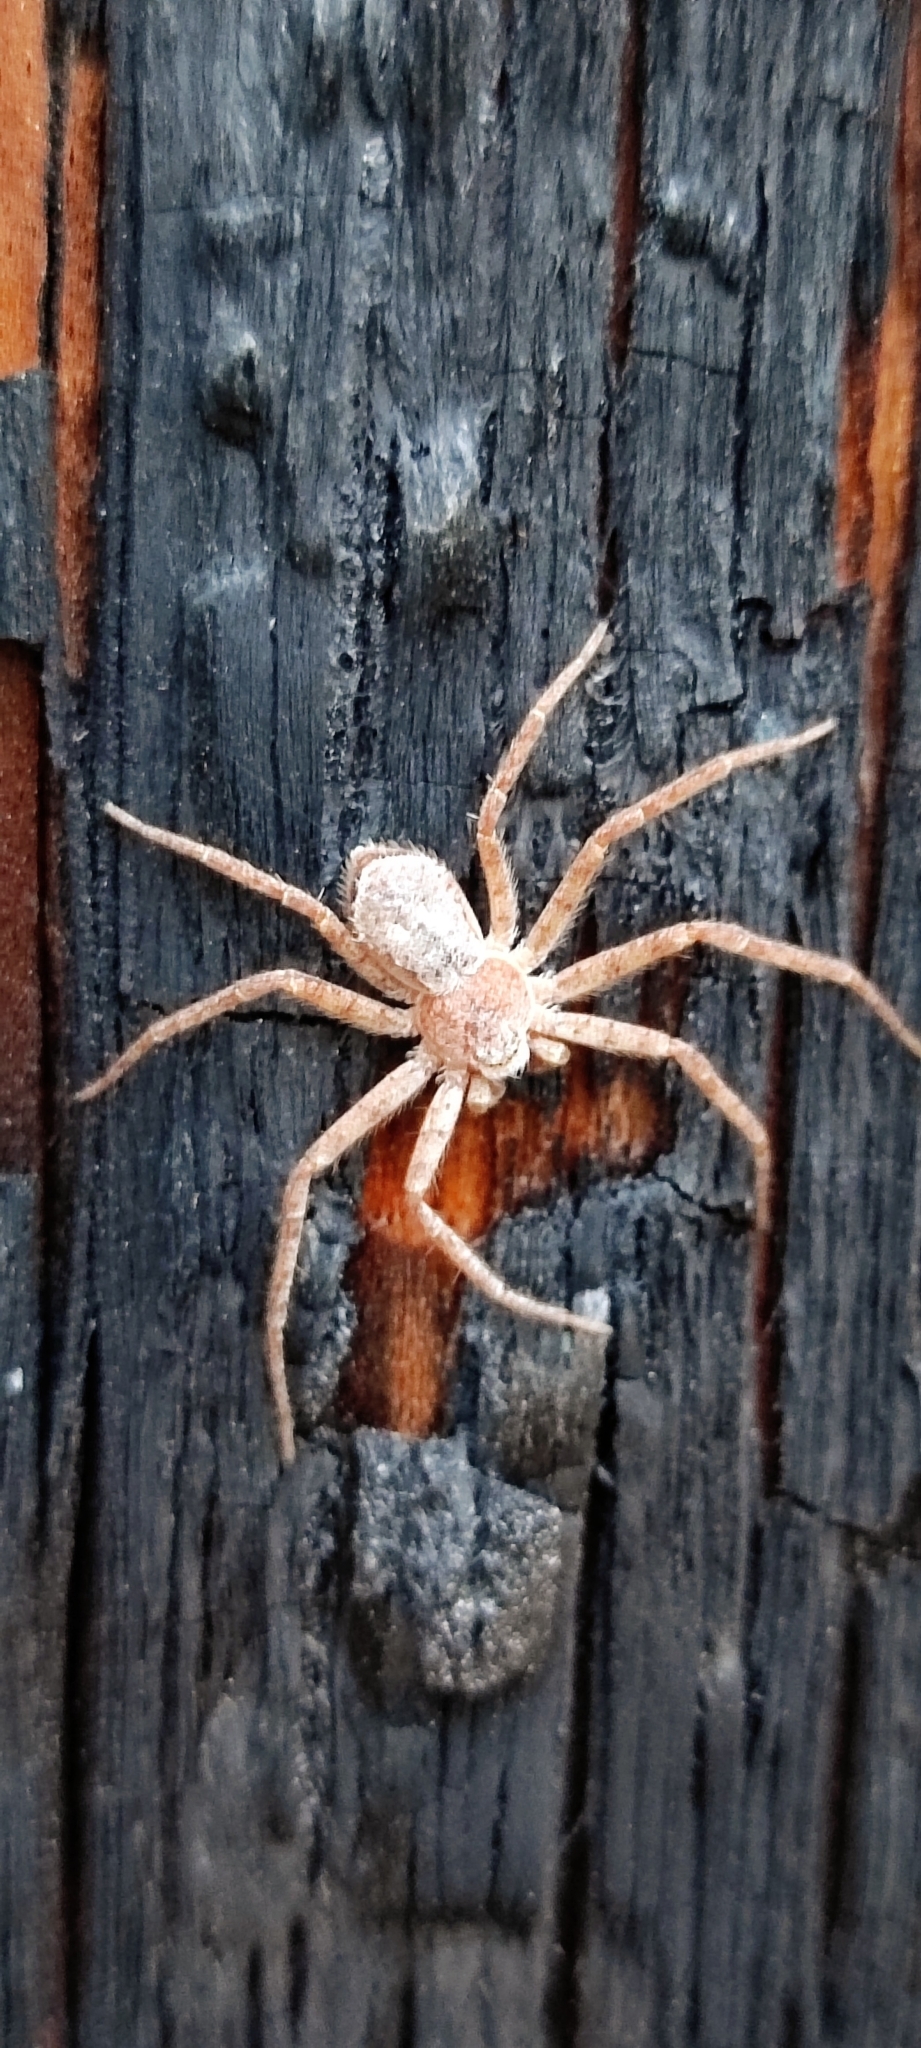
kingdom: Animalia
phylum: Arthropoda
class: Arachnida
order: Araneae
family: Philodromidae
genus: Philodromus
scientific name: Philodromus fuscomarginatus
